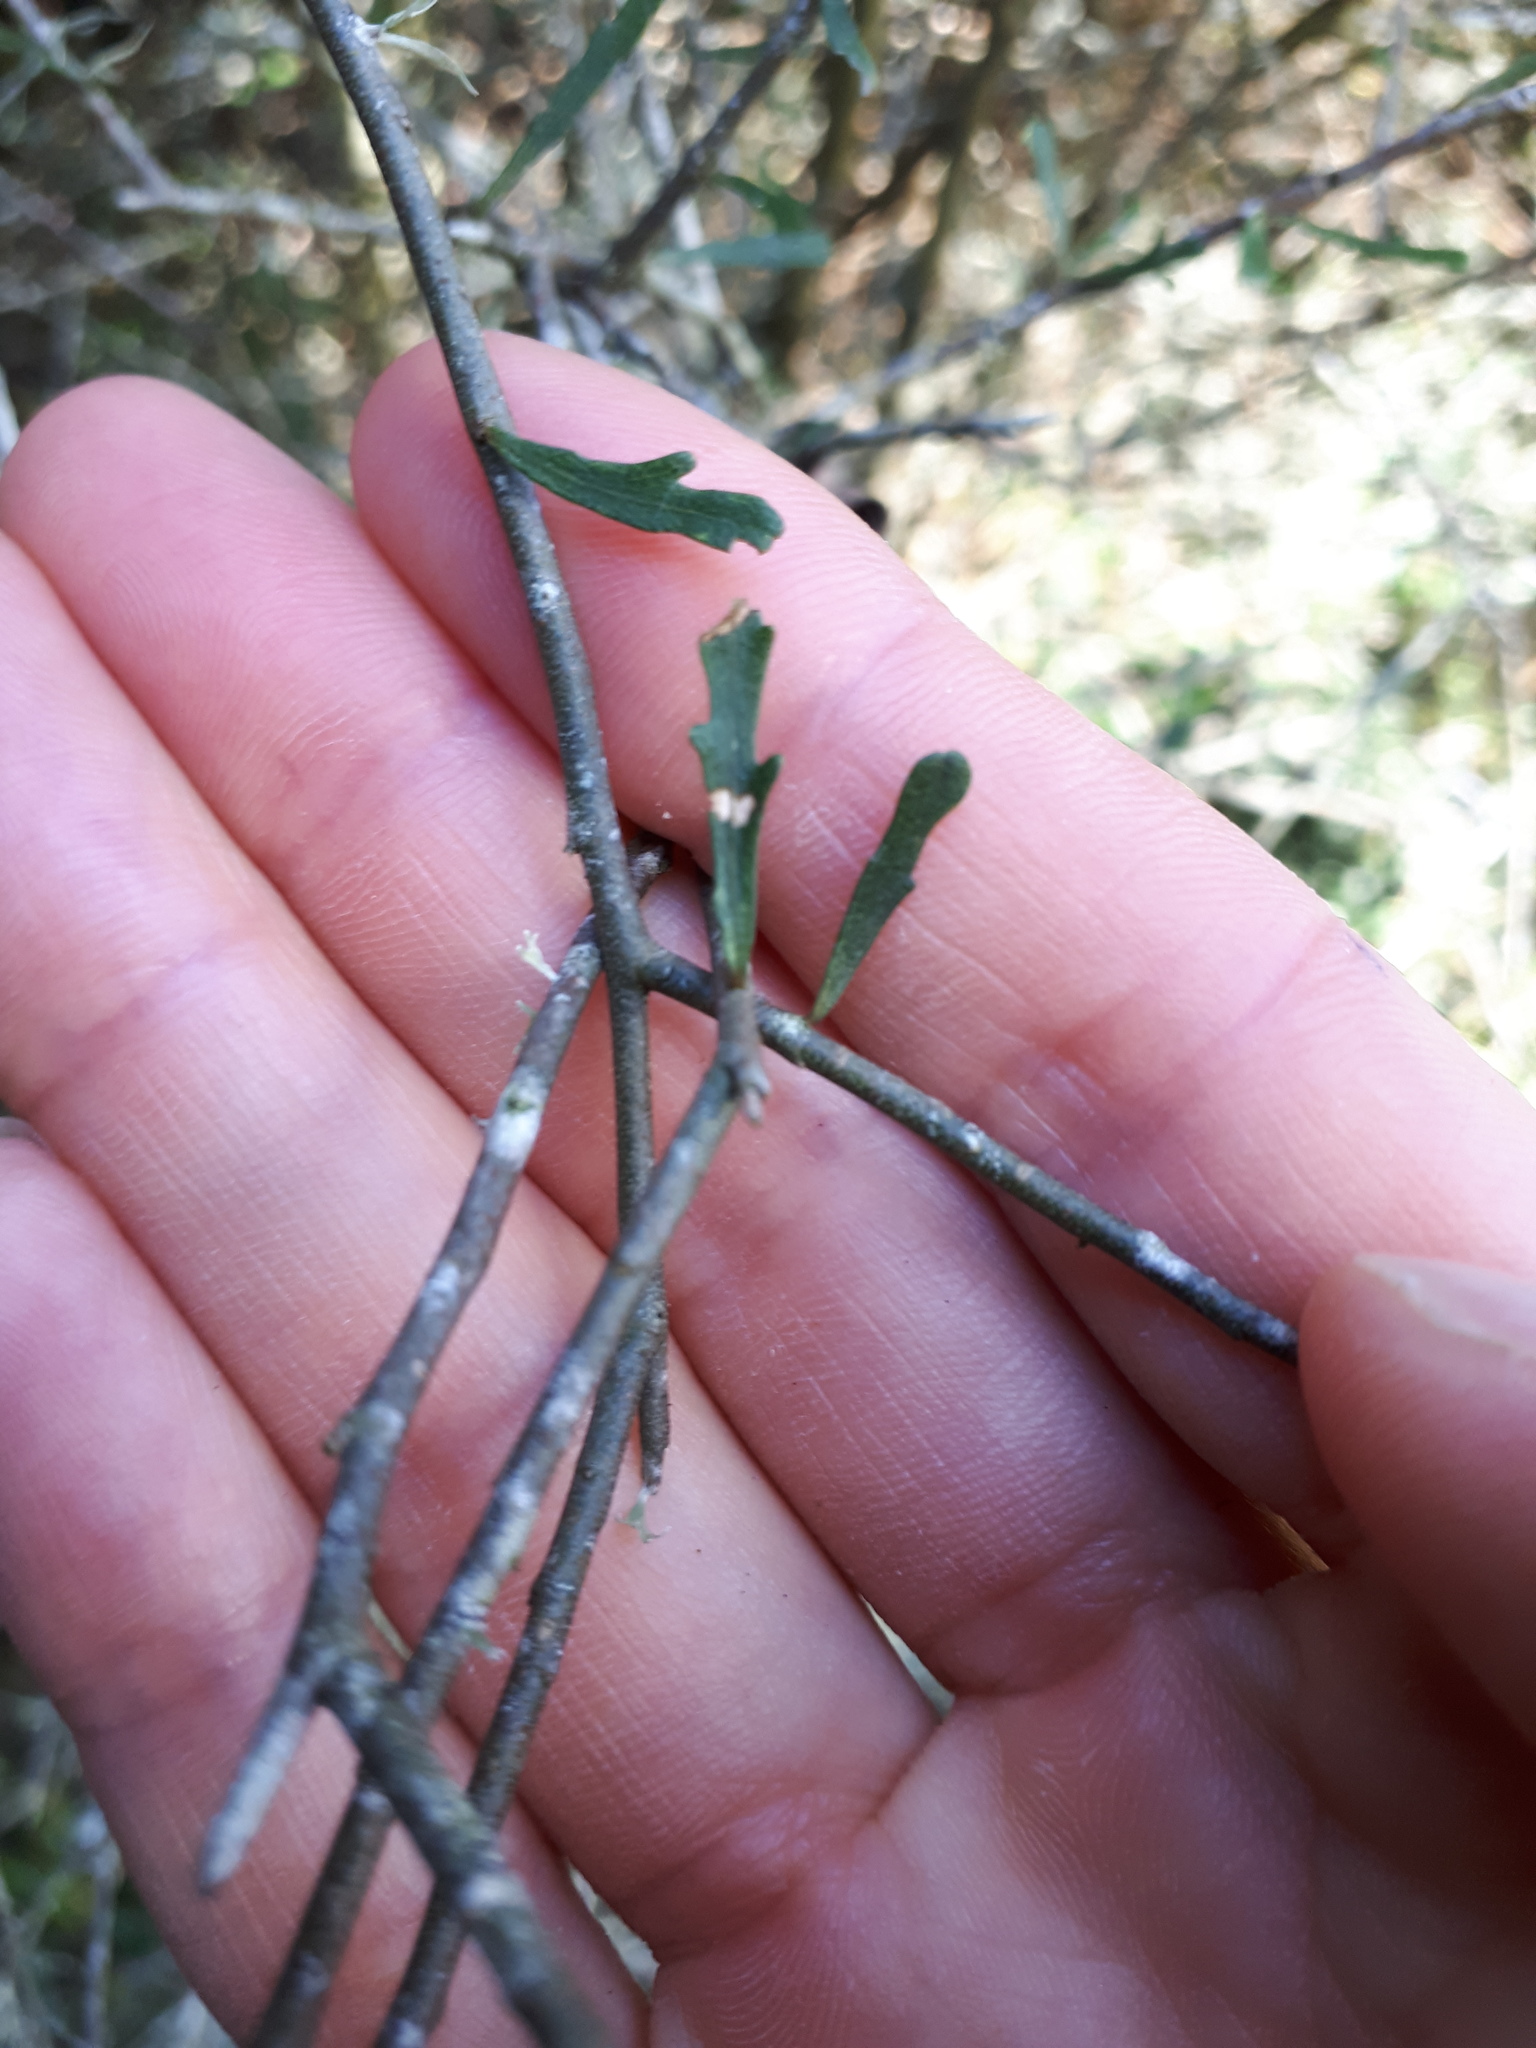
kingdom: Plantae
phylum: Tracheophyta
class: Magnoliopsida
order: Malpighiales
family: Violaceae
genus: Melicytus
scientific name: Melicytus flexuosus
